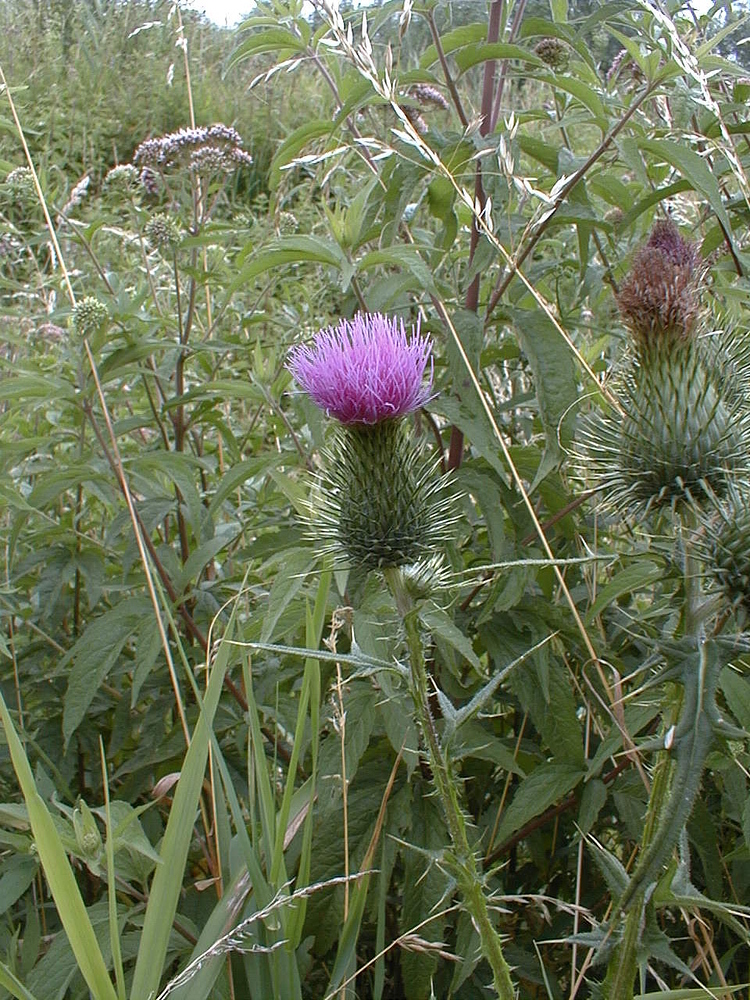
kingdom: Plantae
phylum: Tracheophyta
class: Magnoliopsida
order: Asterales
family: Asteraceae
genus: Cirsium
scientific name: Cirsium vulgare
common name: Bull thistle
